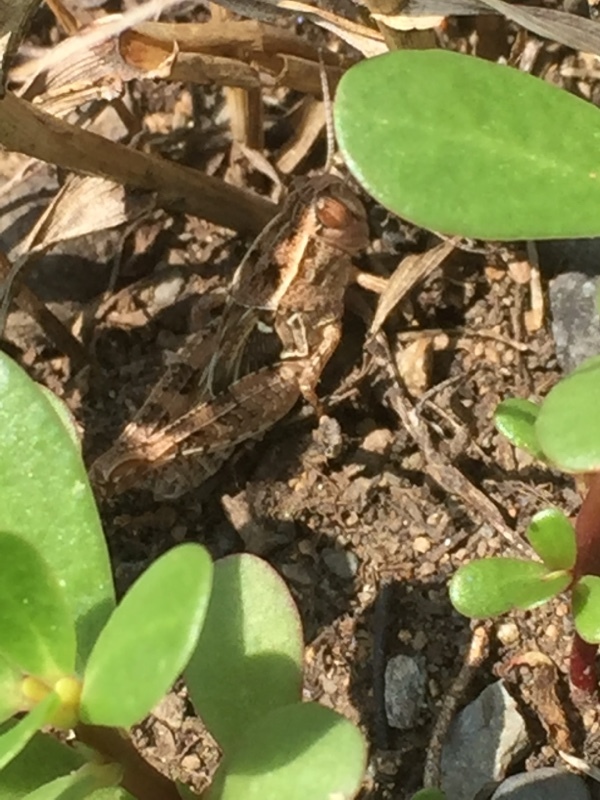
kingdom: Plantae
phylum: Tracheophyta
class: Magnoliopsida
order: Caryophyllales
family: Portulacaceae
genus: Portulaca
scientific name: Portulaca oleracea
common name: Common purslane
